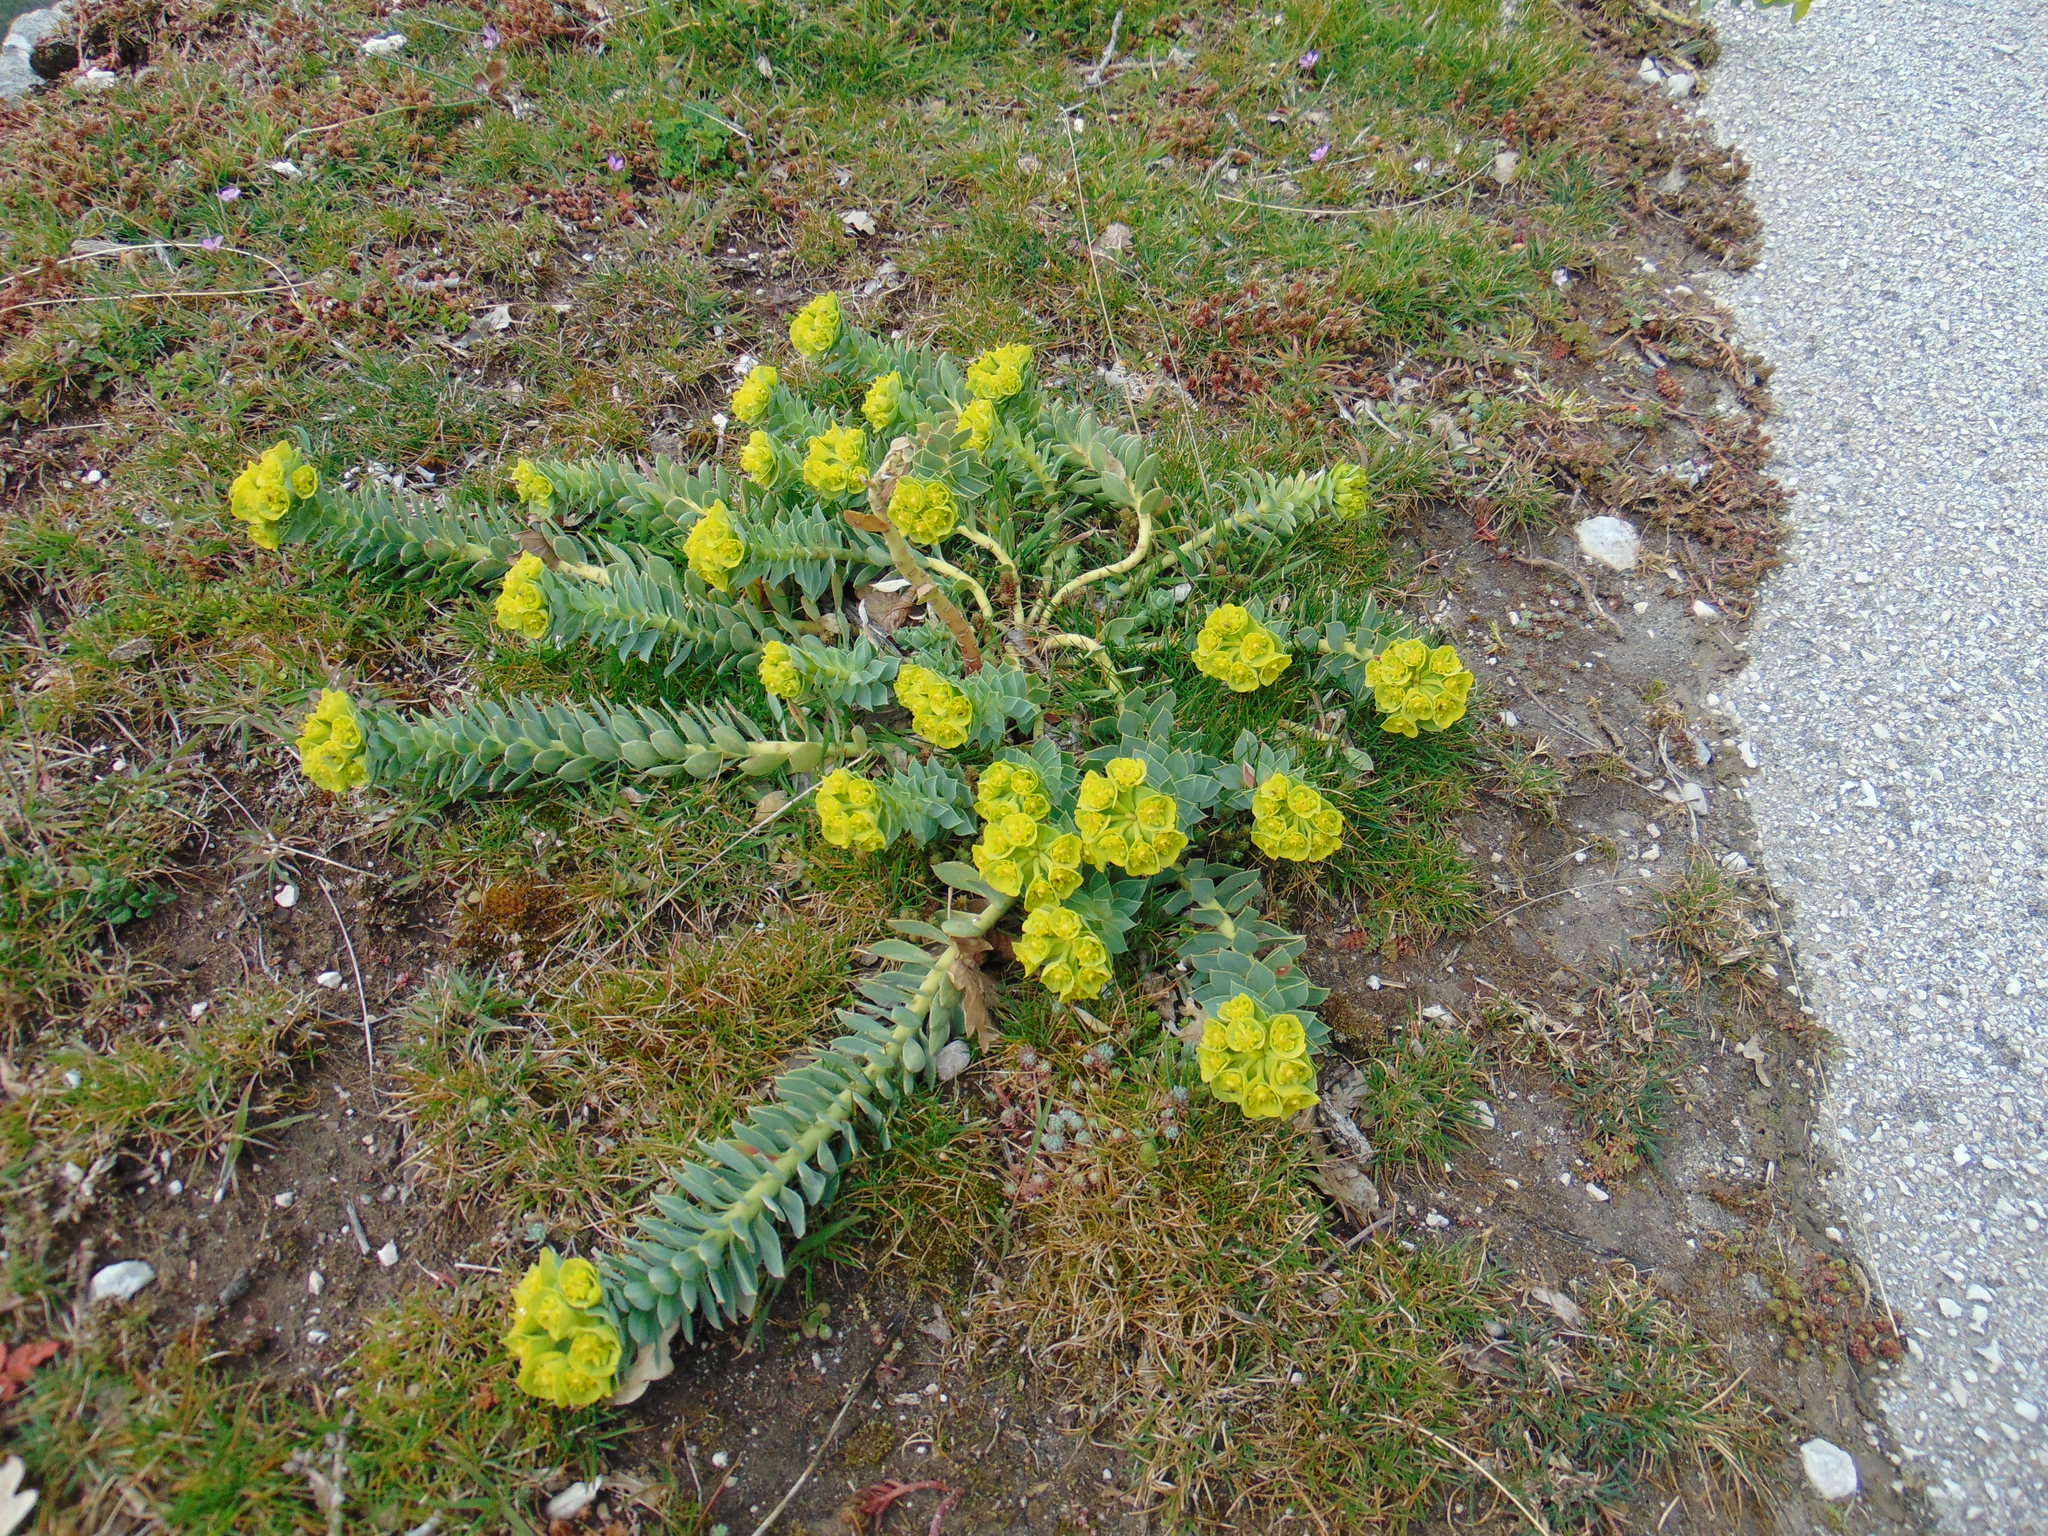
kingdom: Plantae
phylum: Tracheophyta
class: Magnoliopsida
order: Malpighiales
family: Euphorbiaceae
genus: Euphorbia
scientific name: Euphorbia myrsinites
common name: Myrtle spurge
